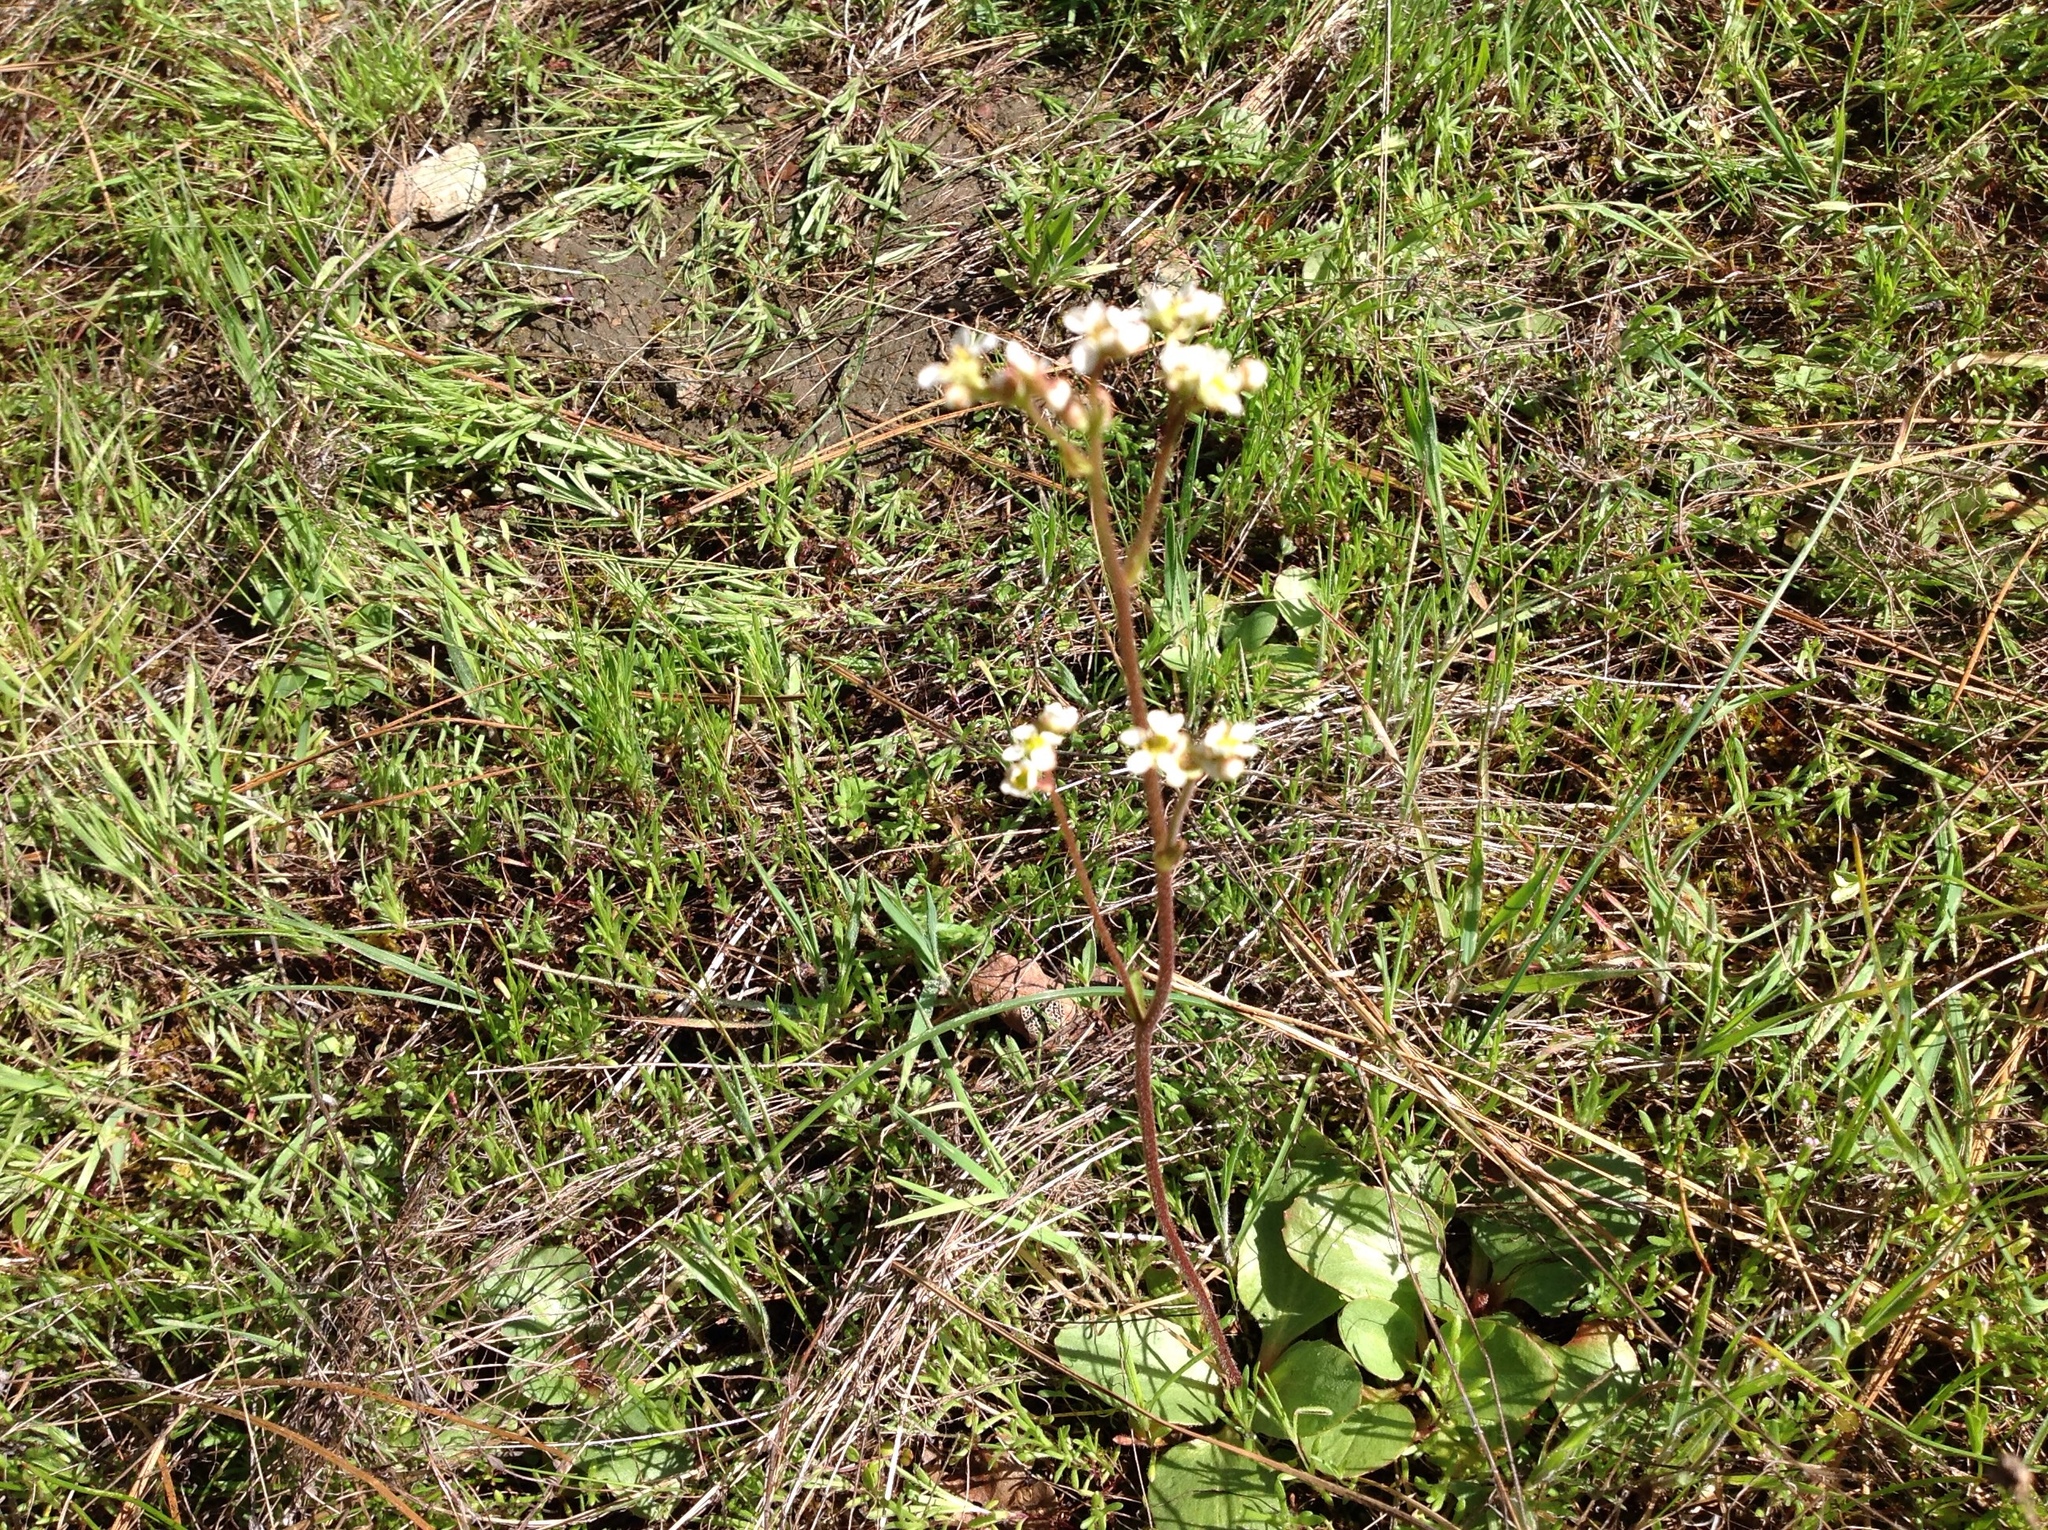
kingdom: Plantae
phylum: Tracheophyta
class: Magnoliopsida
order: Saxifragales
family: Saxifragaceae
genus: Micranthes
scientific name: Micranthes californica
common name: California saxifrage
